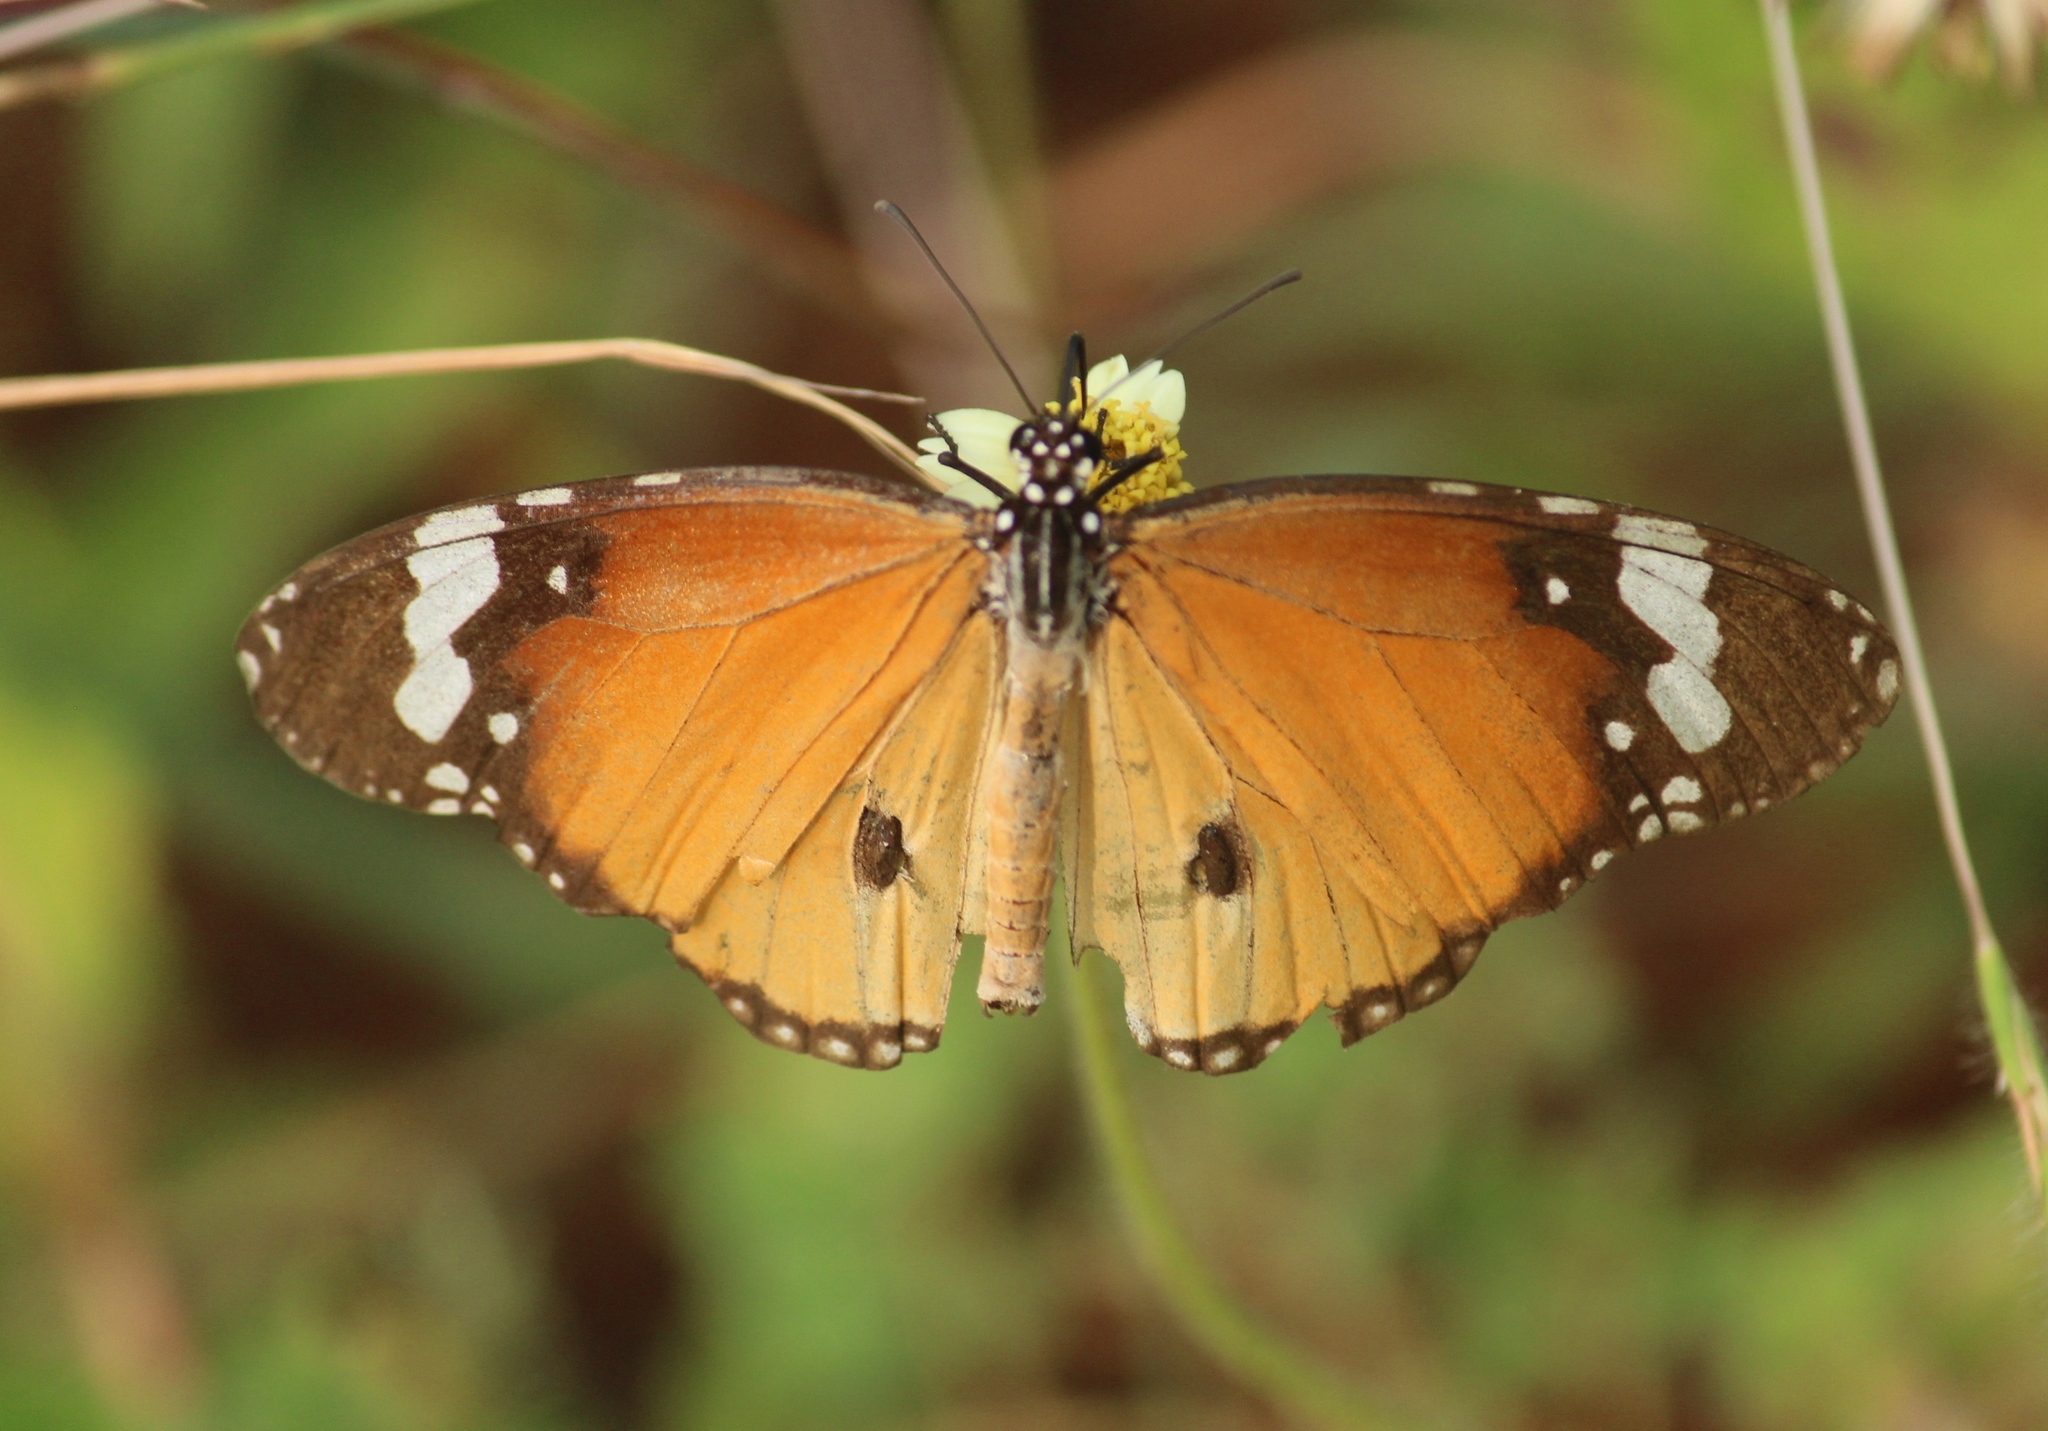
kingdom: Animalia
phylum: Arthropoda
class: Insecta
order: Lepidoptera
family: Nymphalidae
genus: Danaus
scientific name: Danaus chrysippus
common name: Plain tiger
